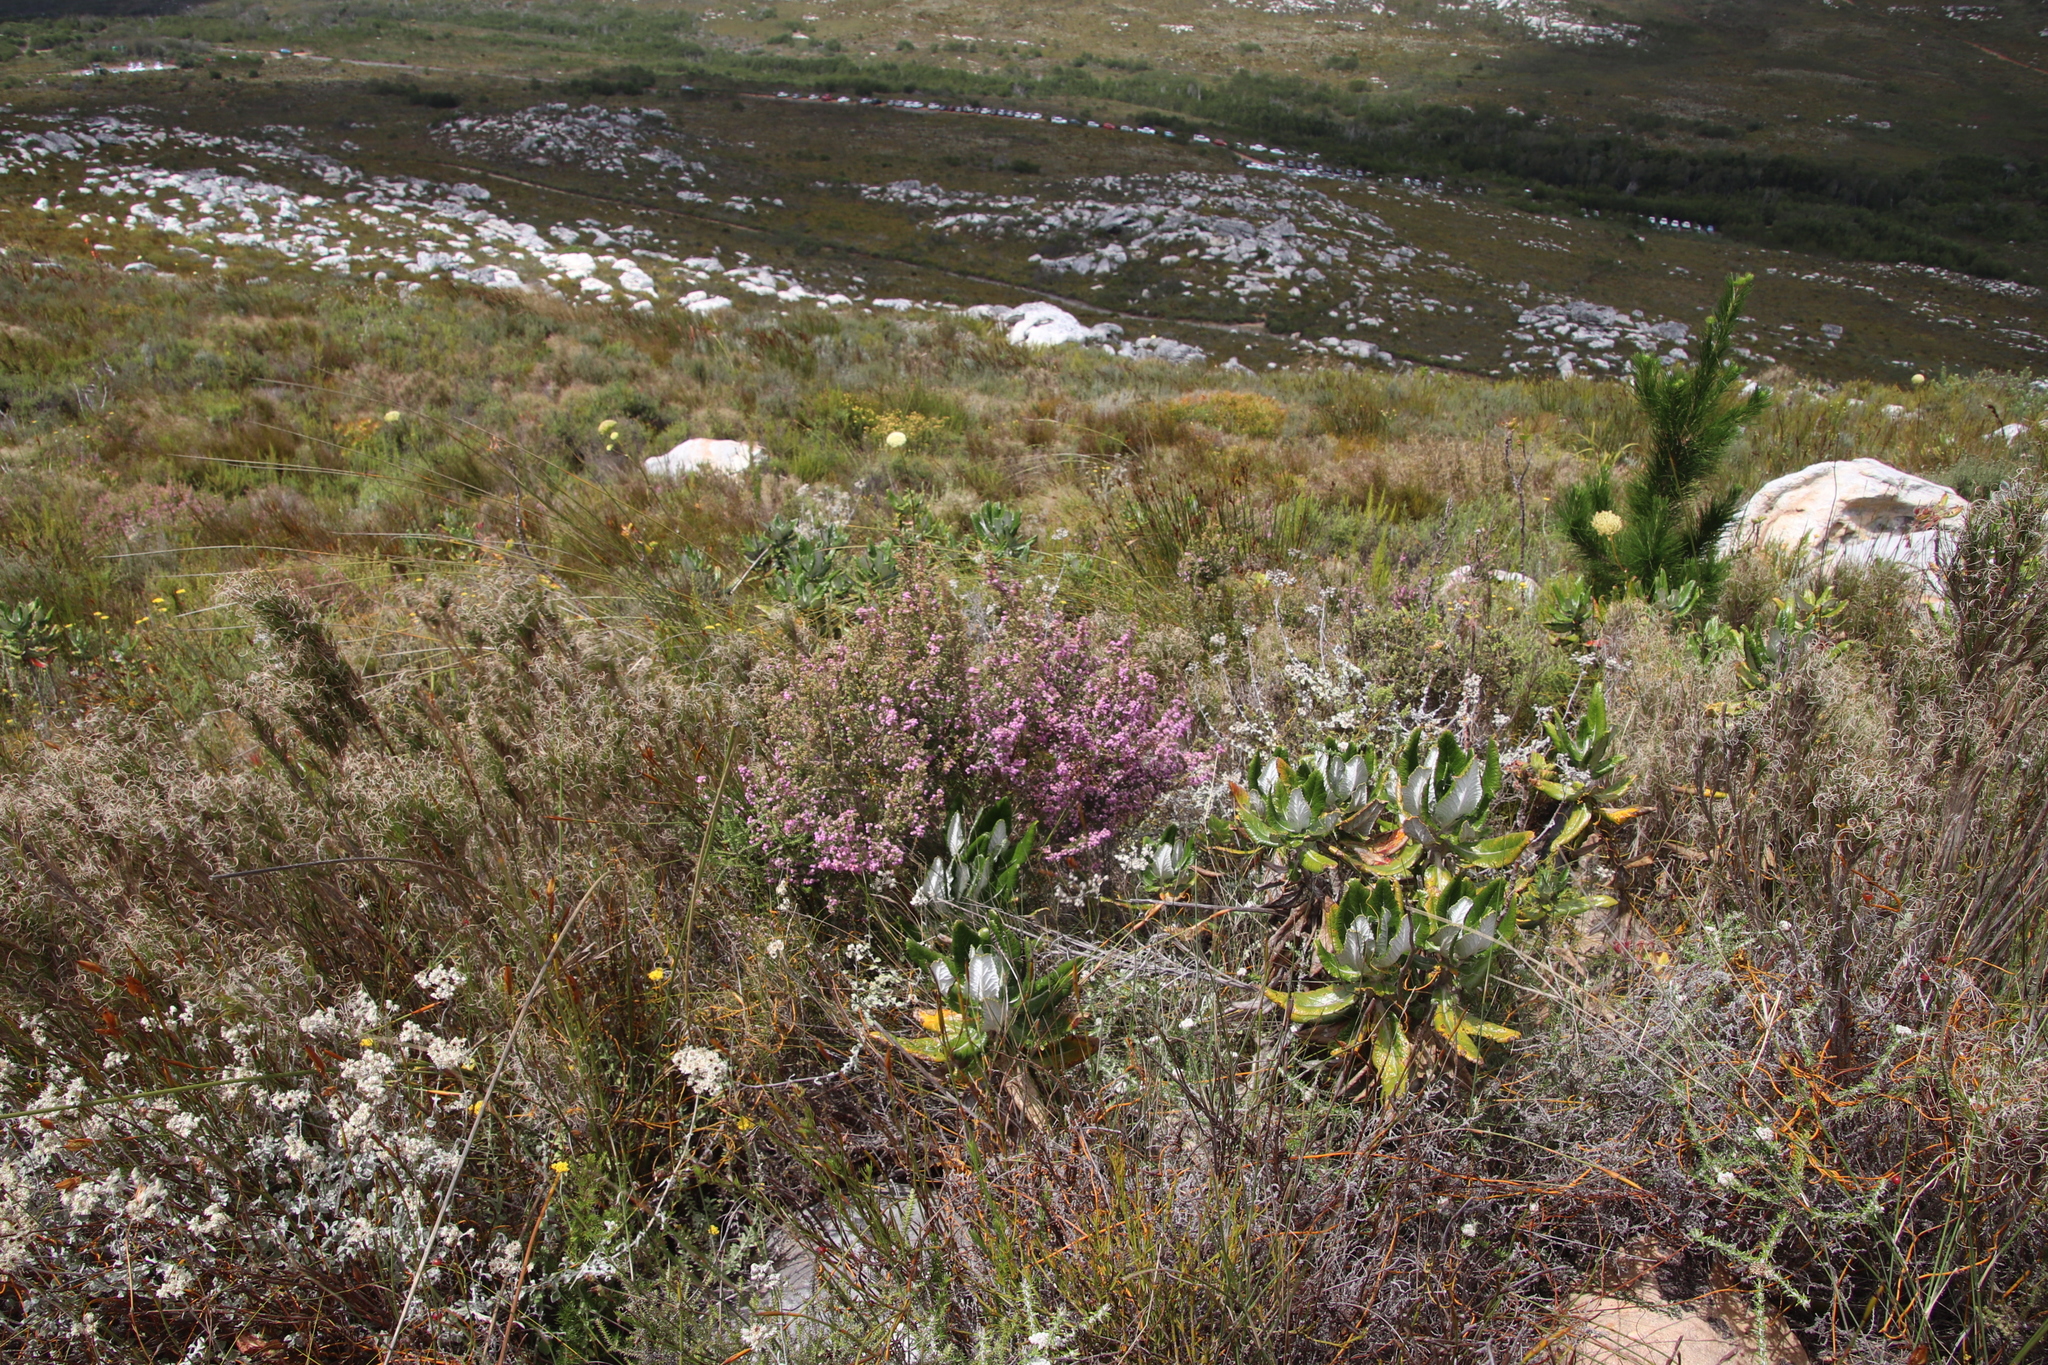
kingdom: Plantae
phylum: Tracheophyta
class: Magnoliopsida
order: Ericales
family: Ericaceae
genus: Erica
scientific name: Erica hirtiflora
